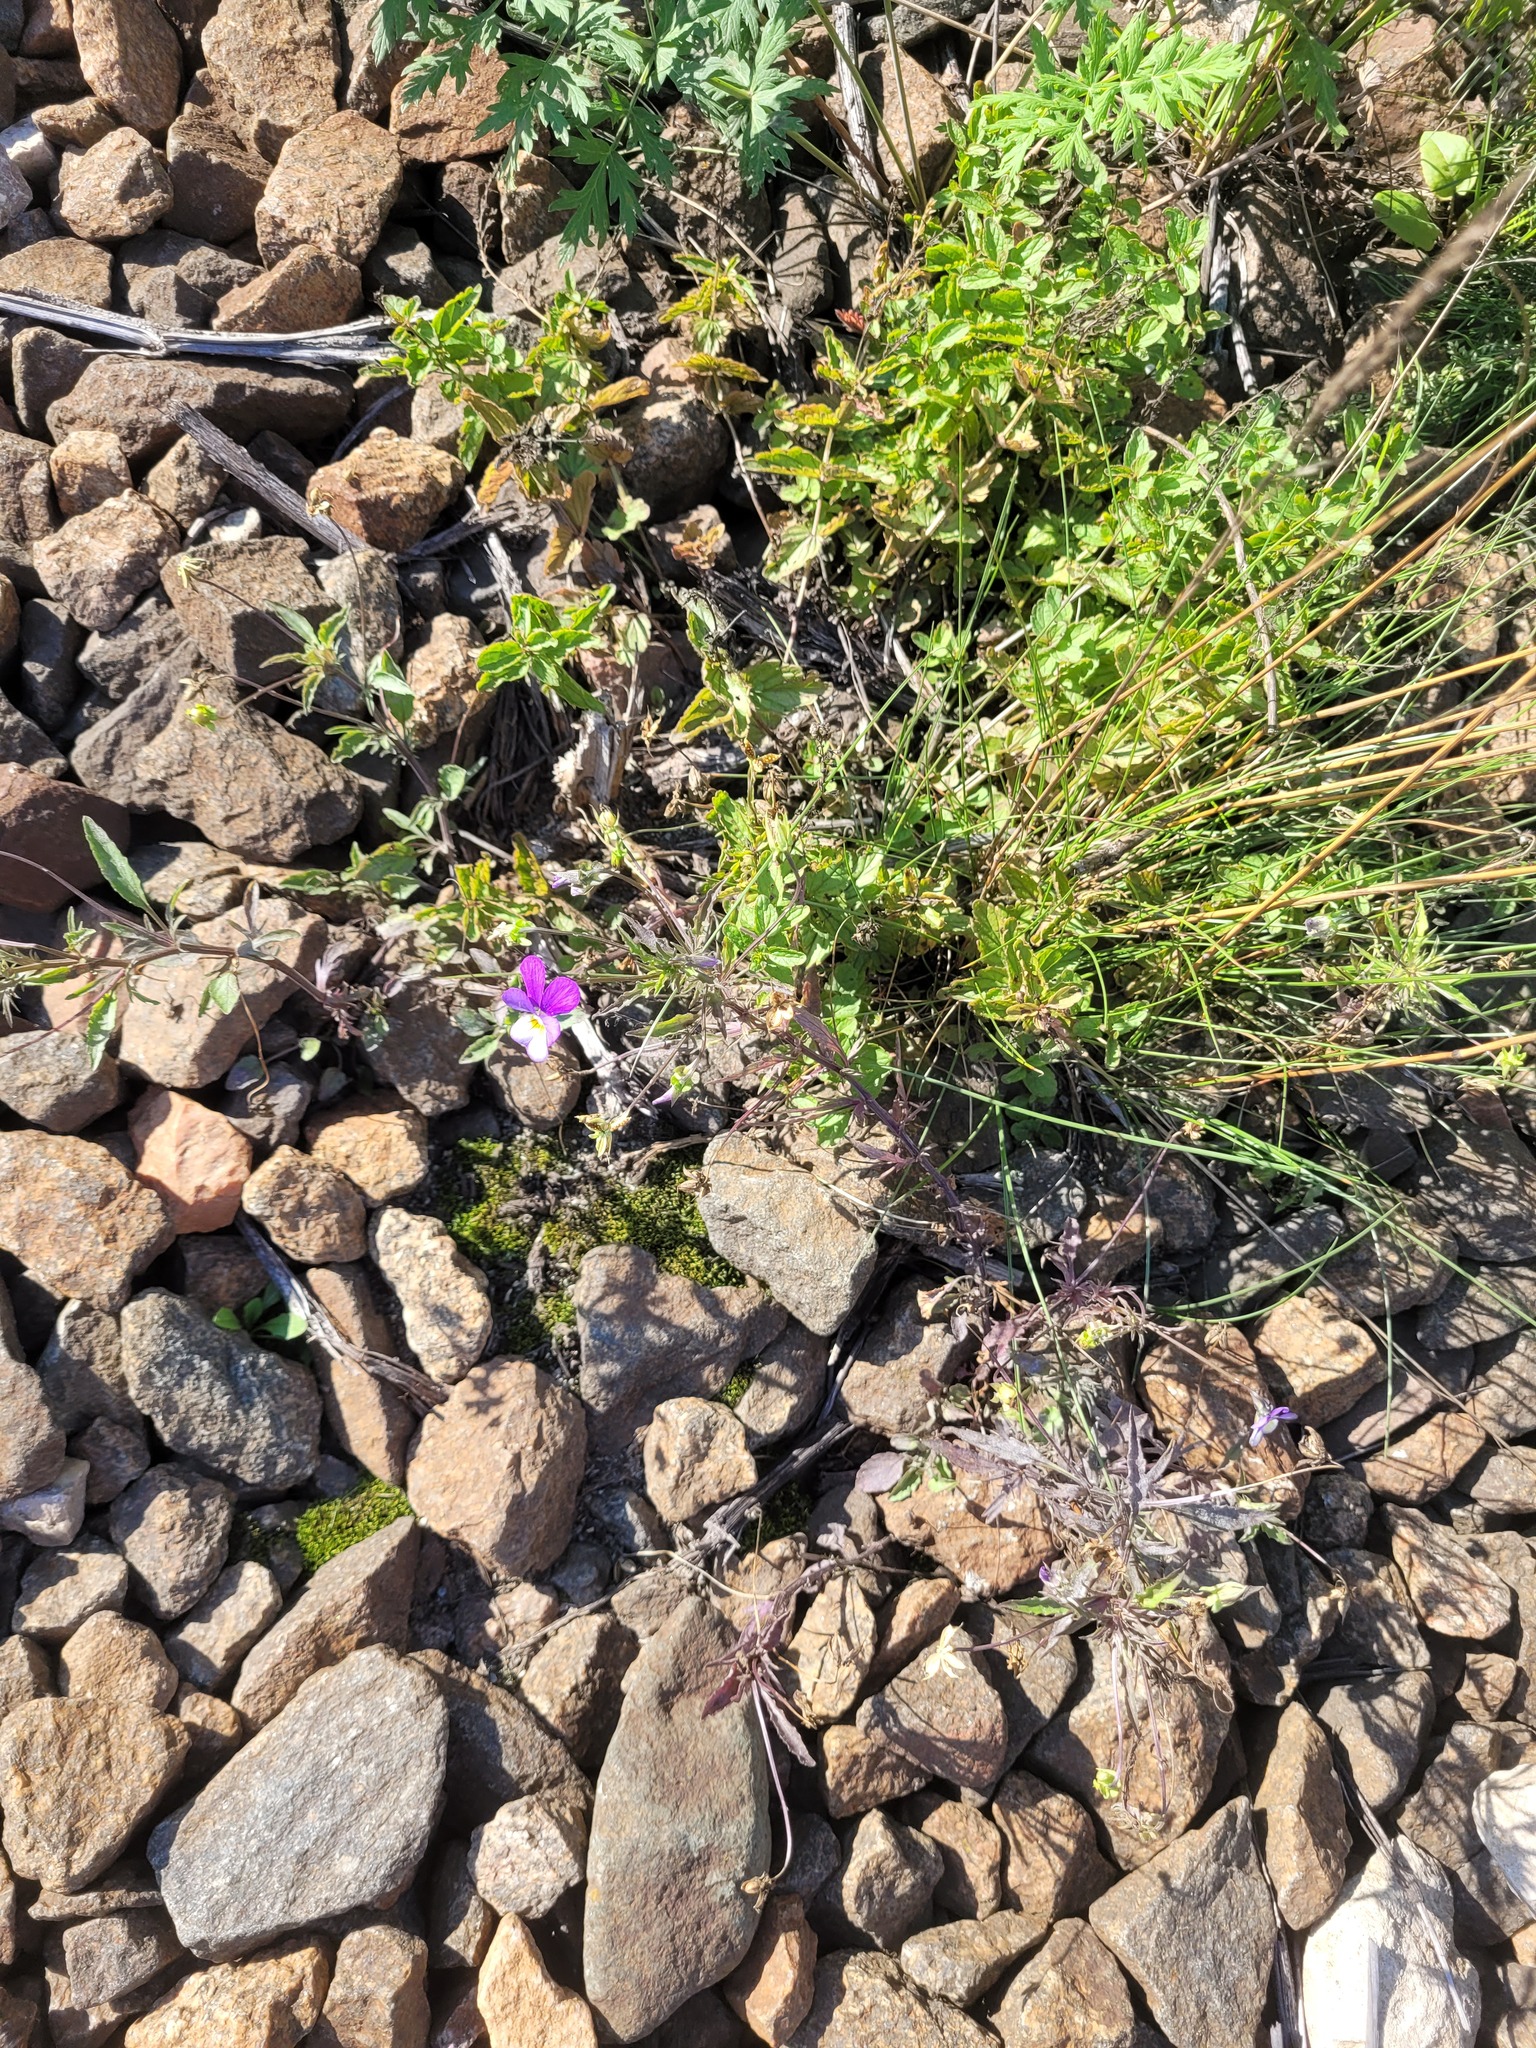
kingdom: Plantae
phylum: Tracheophyta
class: Magnoliopsida
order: Malpighiales
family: Violaceae
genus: Viola
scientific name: Viola tricolor
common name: Pansy
